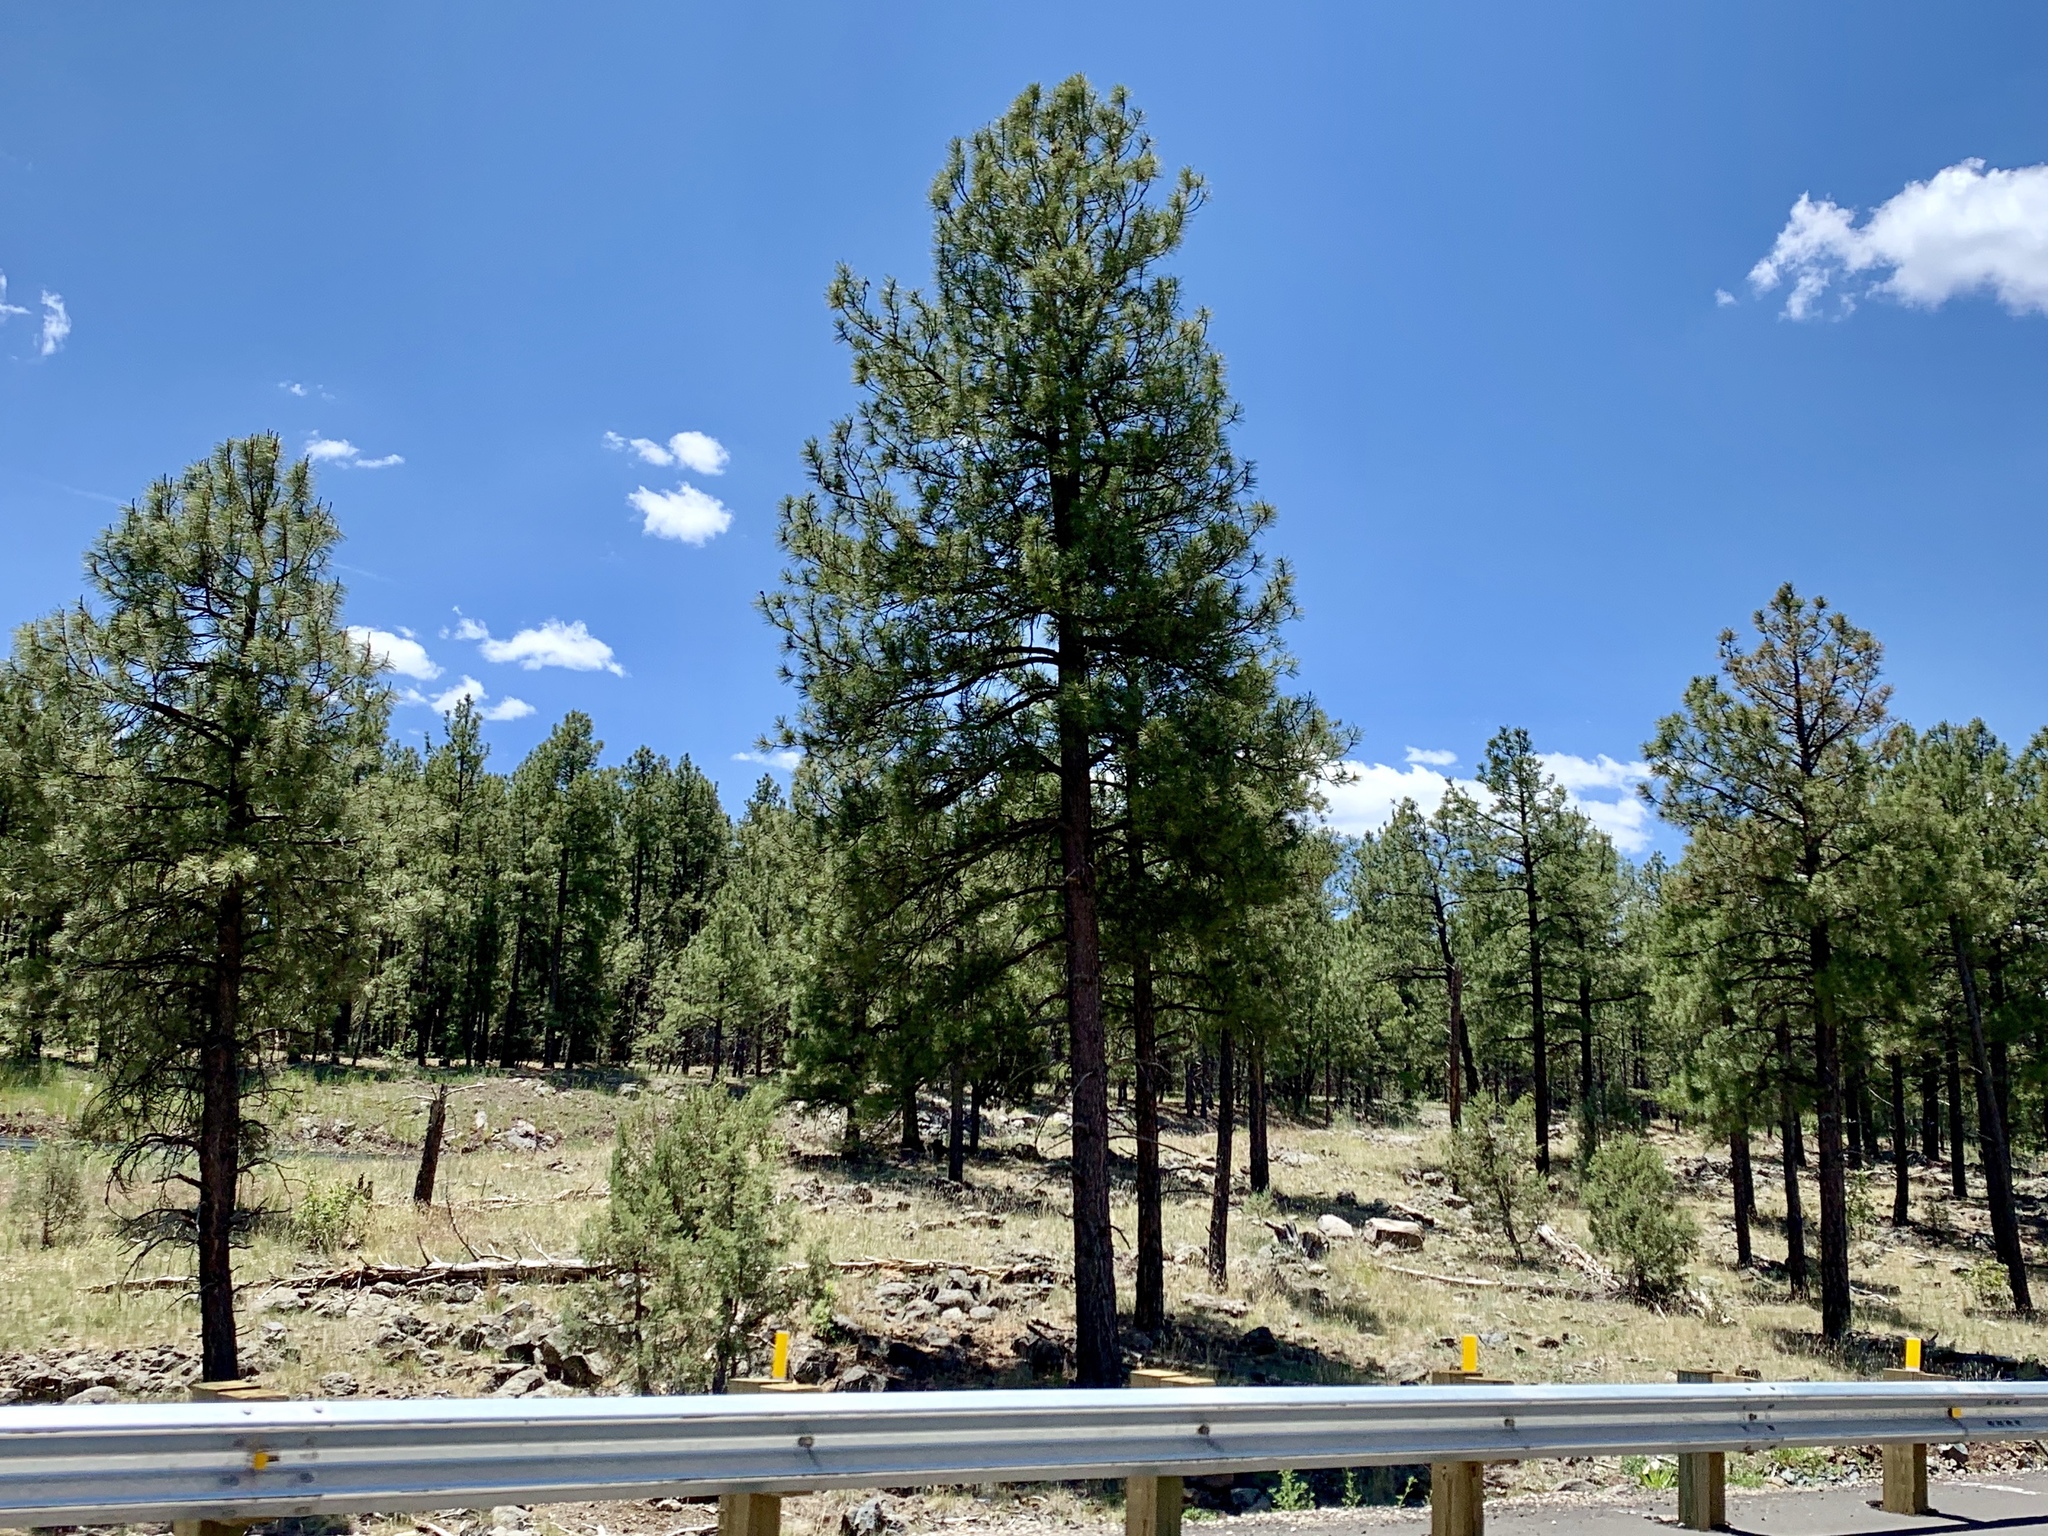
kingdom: Plantae
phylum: Tracheophyta
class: Pinopsida
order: Pinales
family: Pinaceae
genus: Pinus
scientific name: Pinus ponderosa
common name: Western yellow-pine
